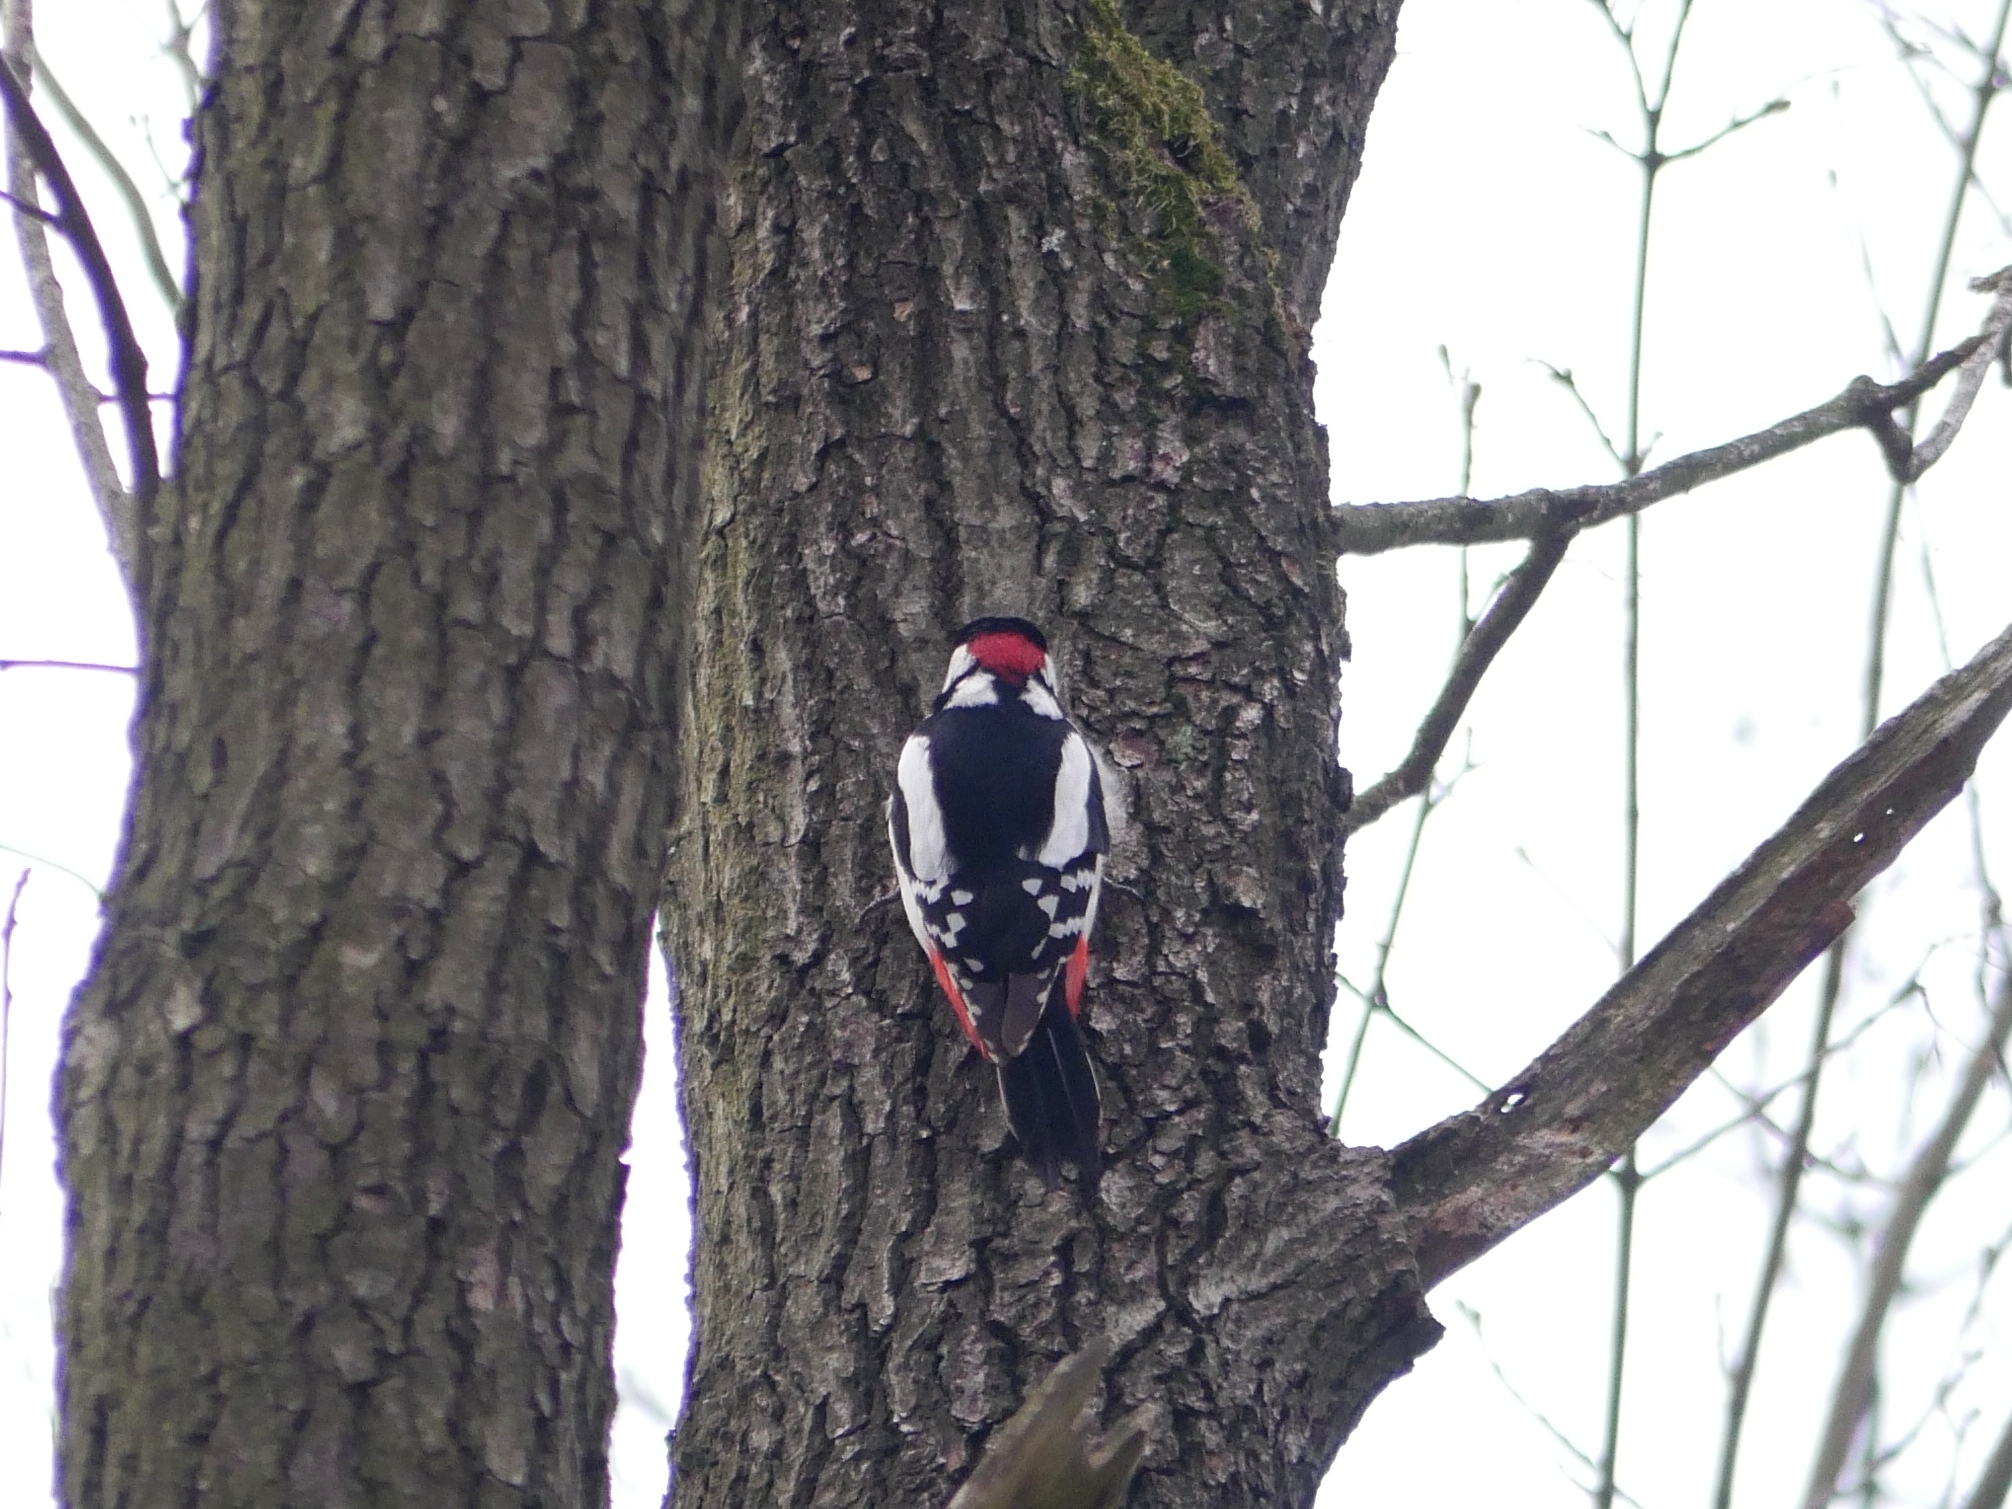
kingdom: Animalia
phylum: Chordata
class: Aves
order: Piciformes
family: Picidae
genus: Dendrocopos
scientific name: Dendrocopos major
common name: Great spotted woodpecker
